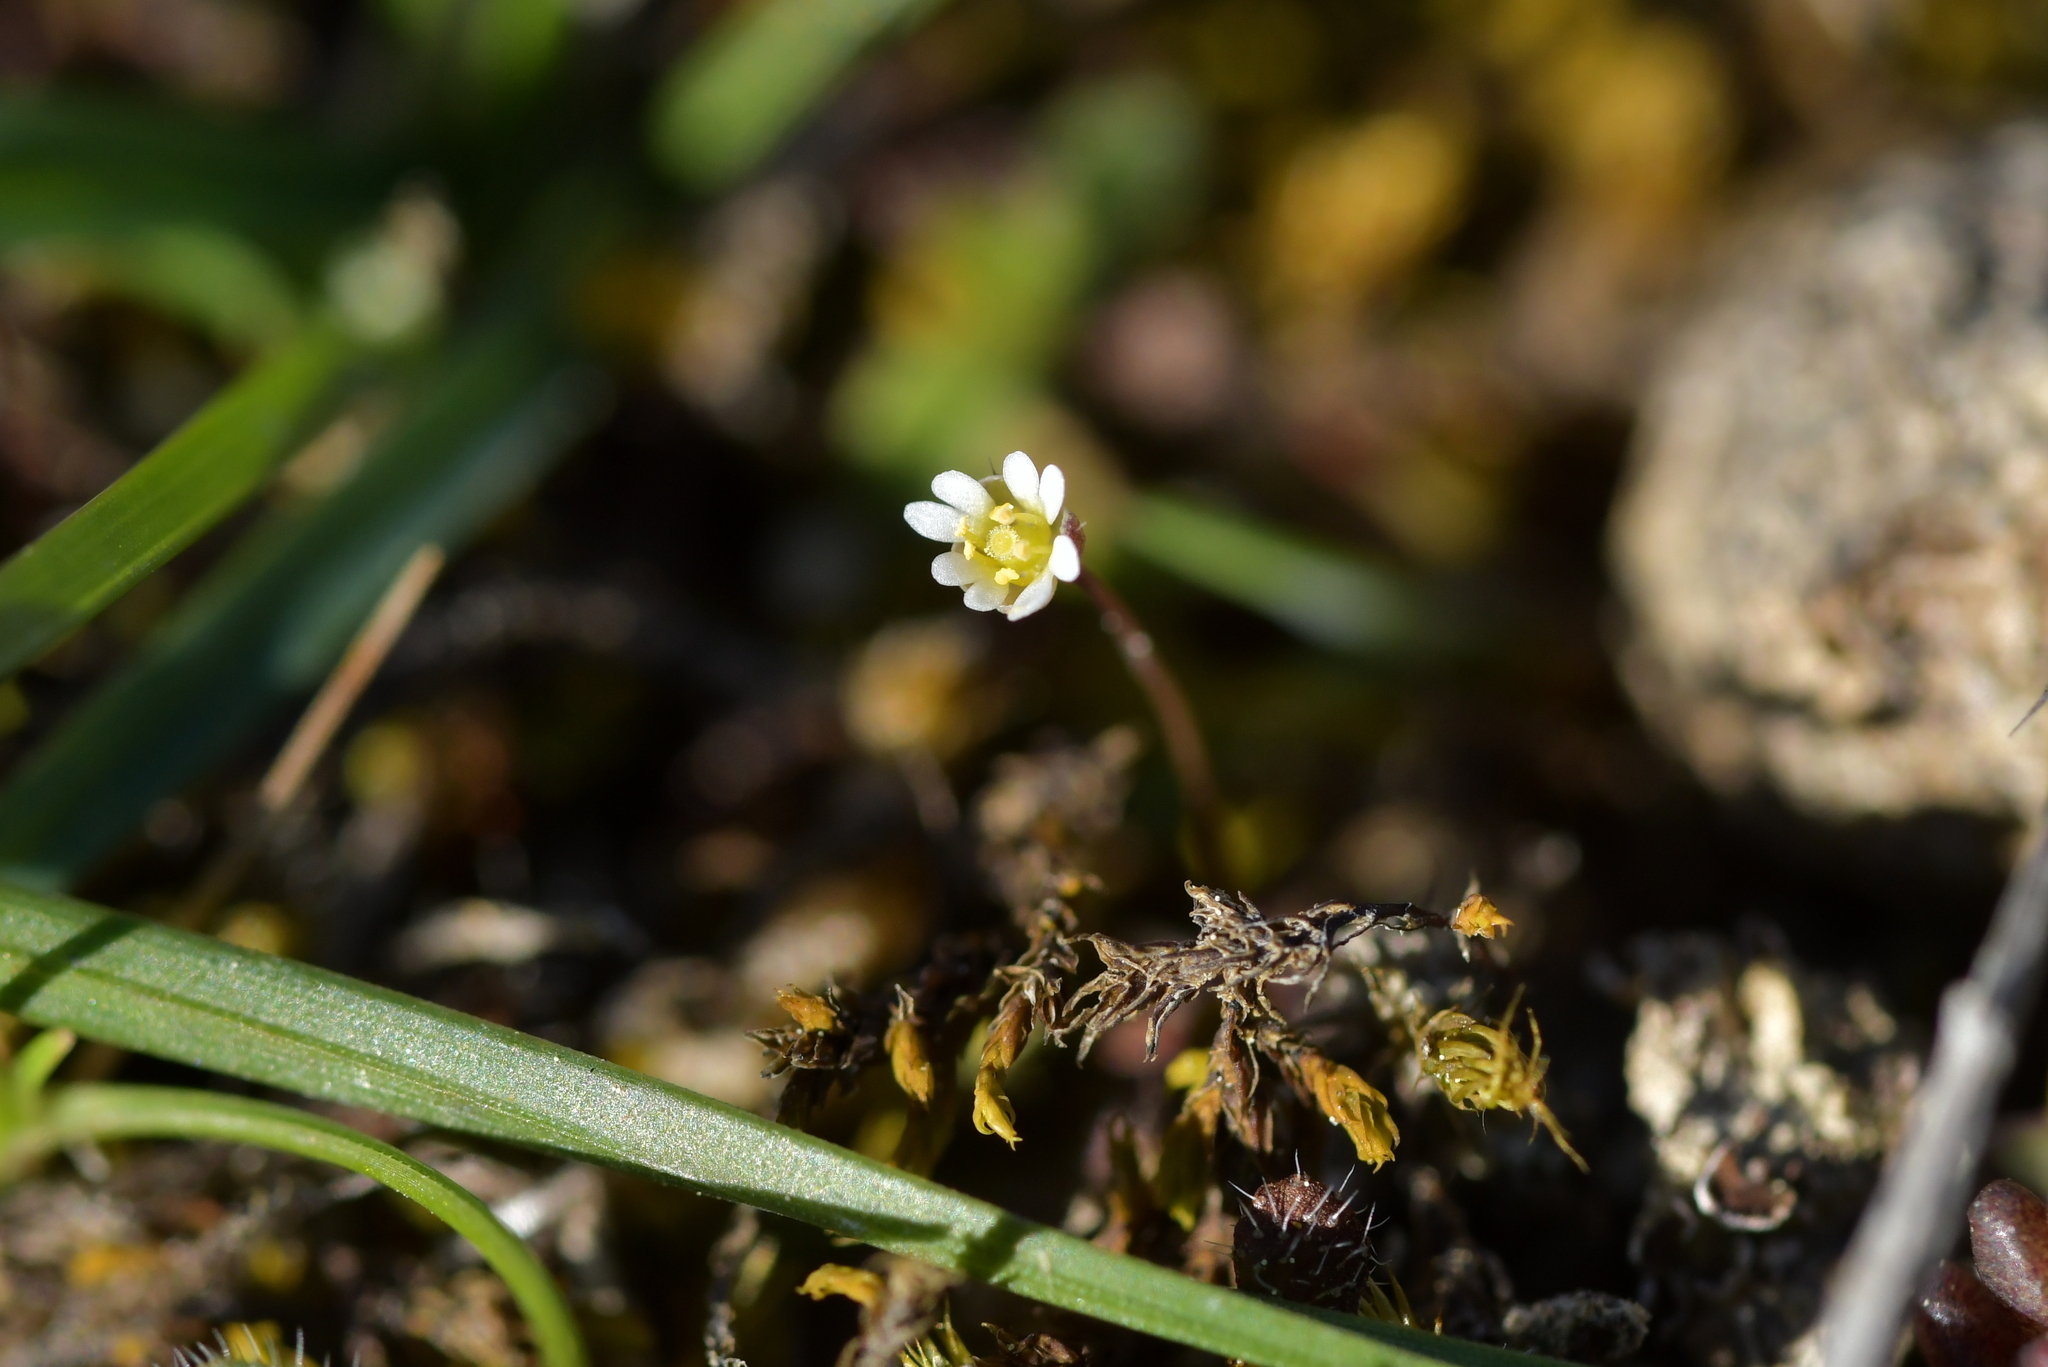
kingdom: Plantae
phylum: Tracheophyta
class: Magnoliopsida
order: Brassicales
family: Brassicaceae
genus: Draba
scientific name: Draba verna
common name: Spring draba
